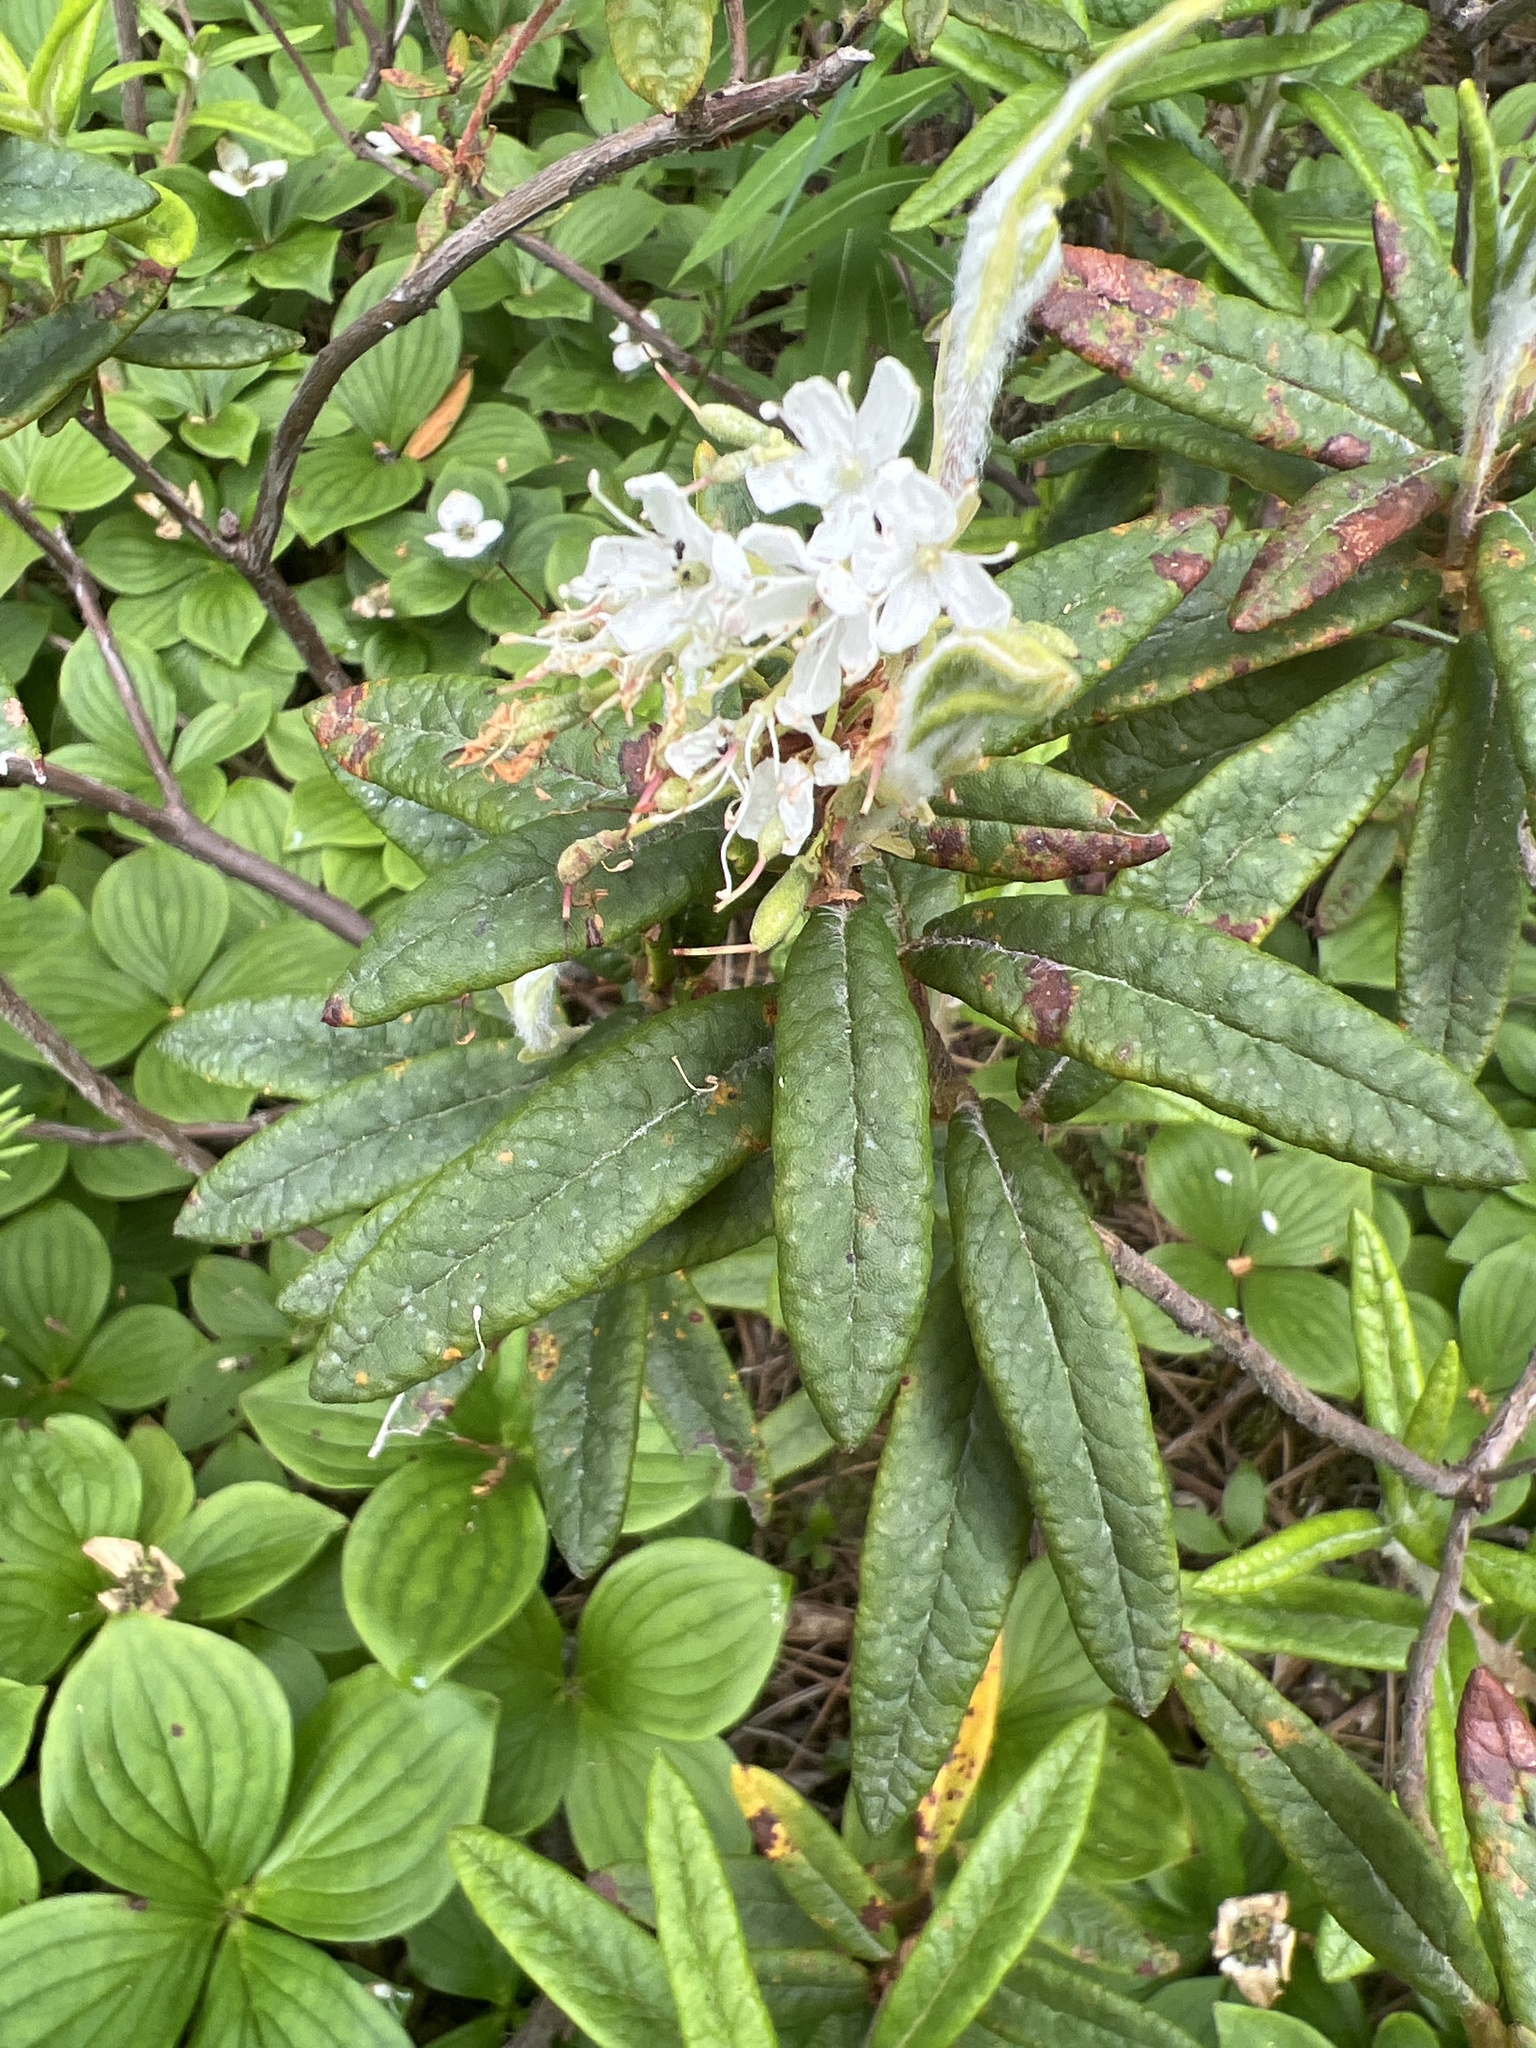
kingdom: Plantae
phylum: Tracheophyta
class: Magnoliopsida
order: Ericales
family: Ericaceae
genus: Rhododendron
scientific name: Rhododendron groenlandicum
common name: Bog labrador tea
